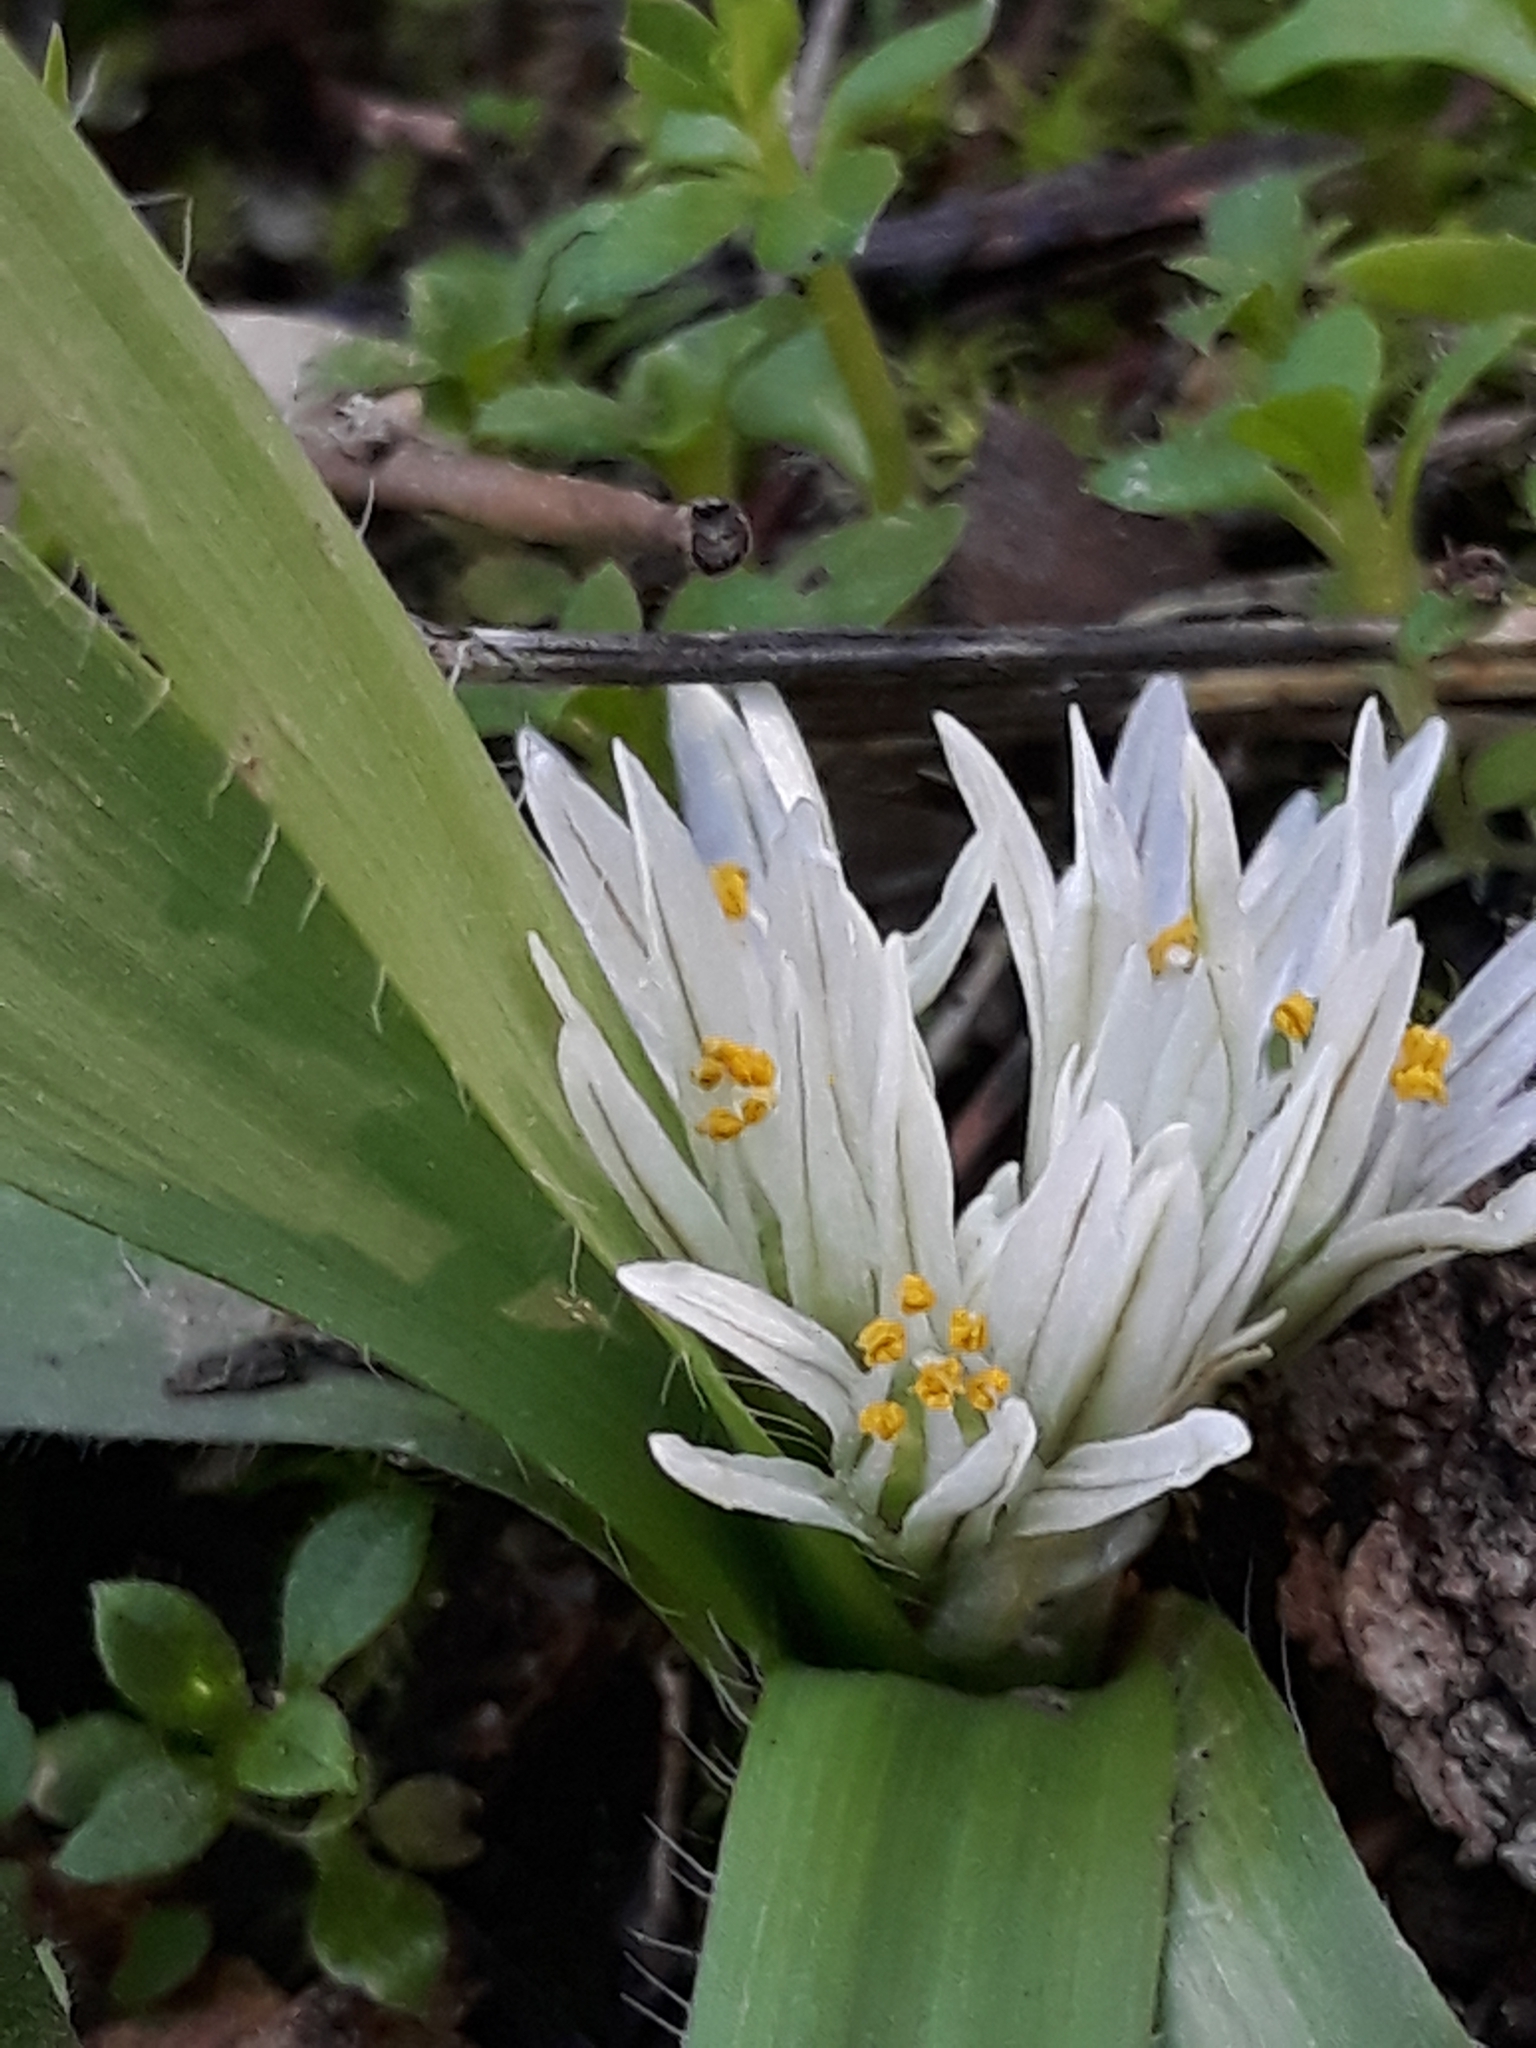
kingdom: Plantae
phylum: Tracheophyta
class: Liliopsida
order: Asparagales
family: Amaryllidaceae
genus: Allium
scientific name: Allium chamaemoly
